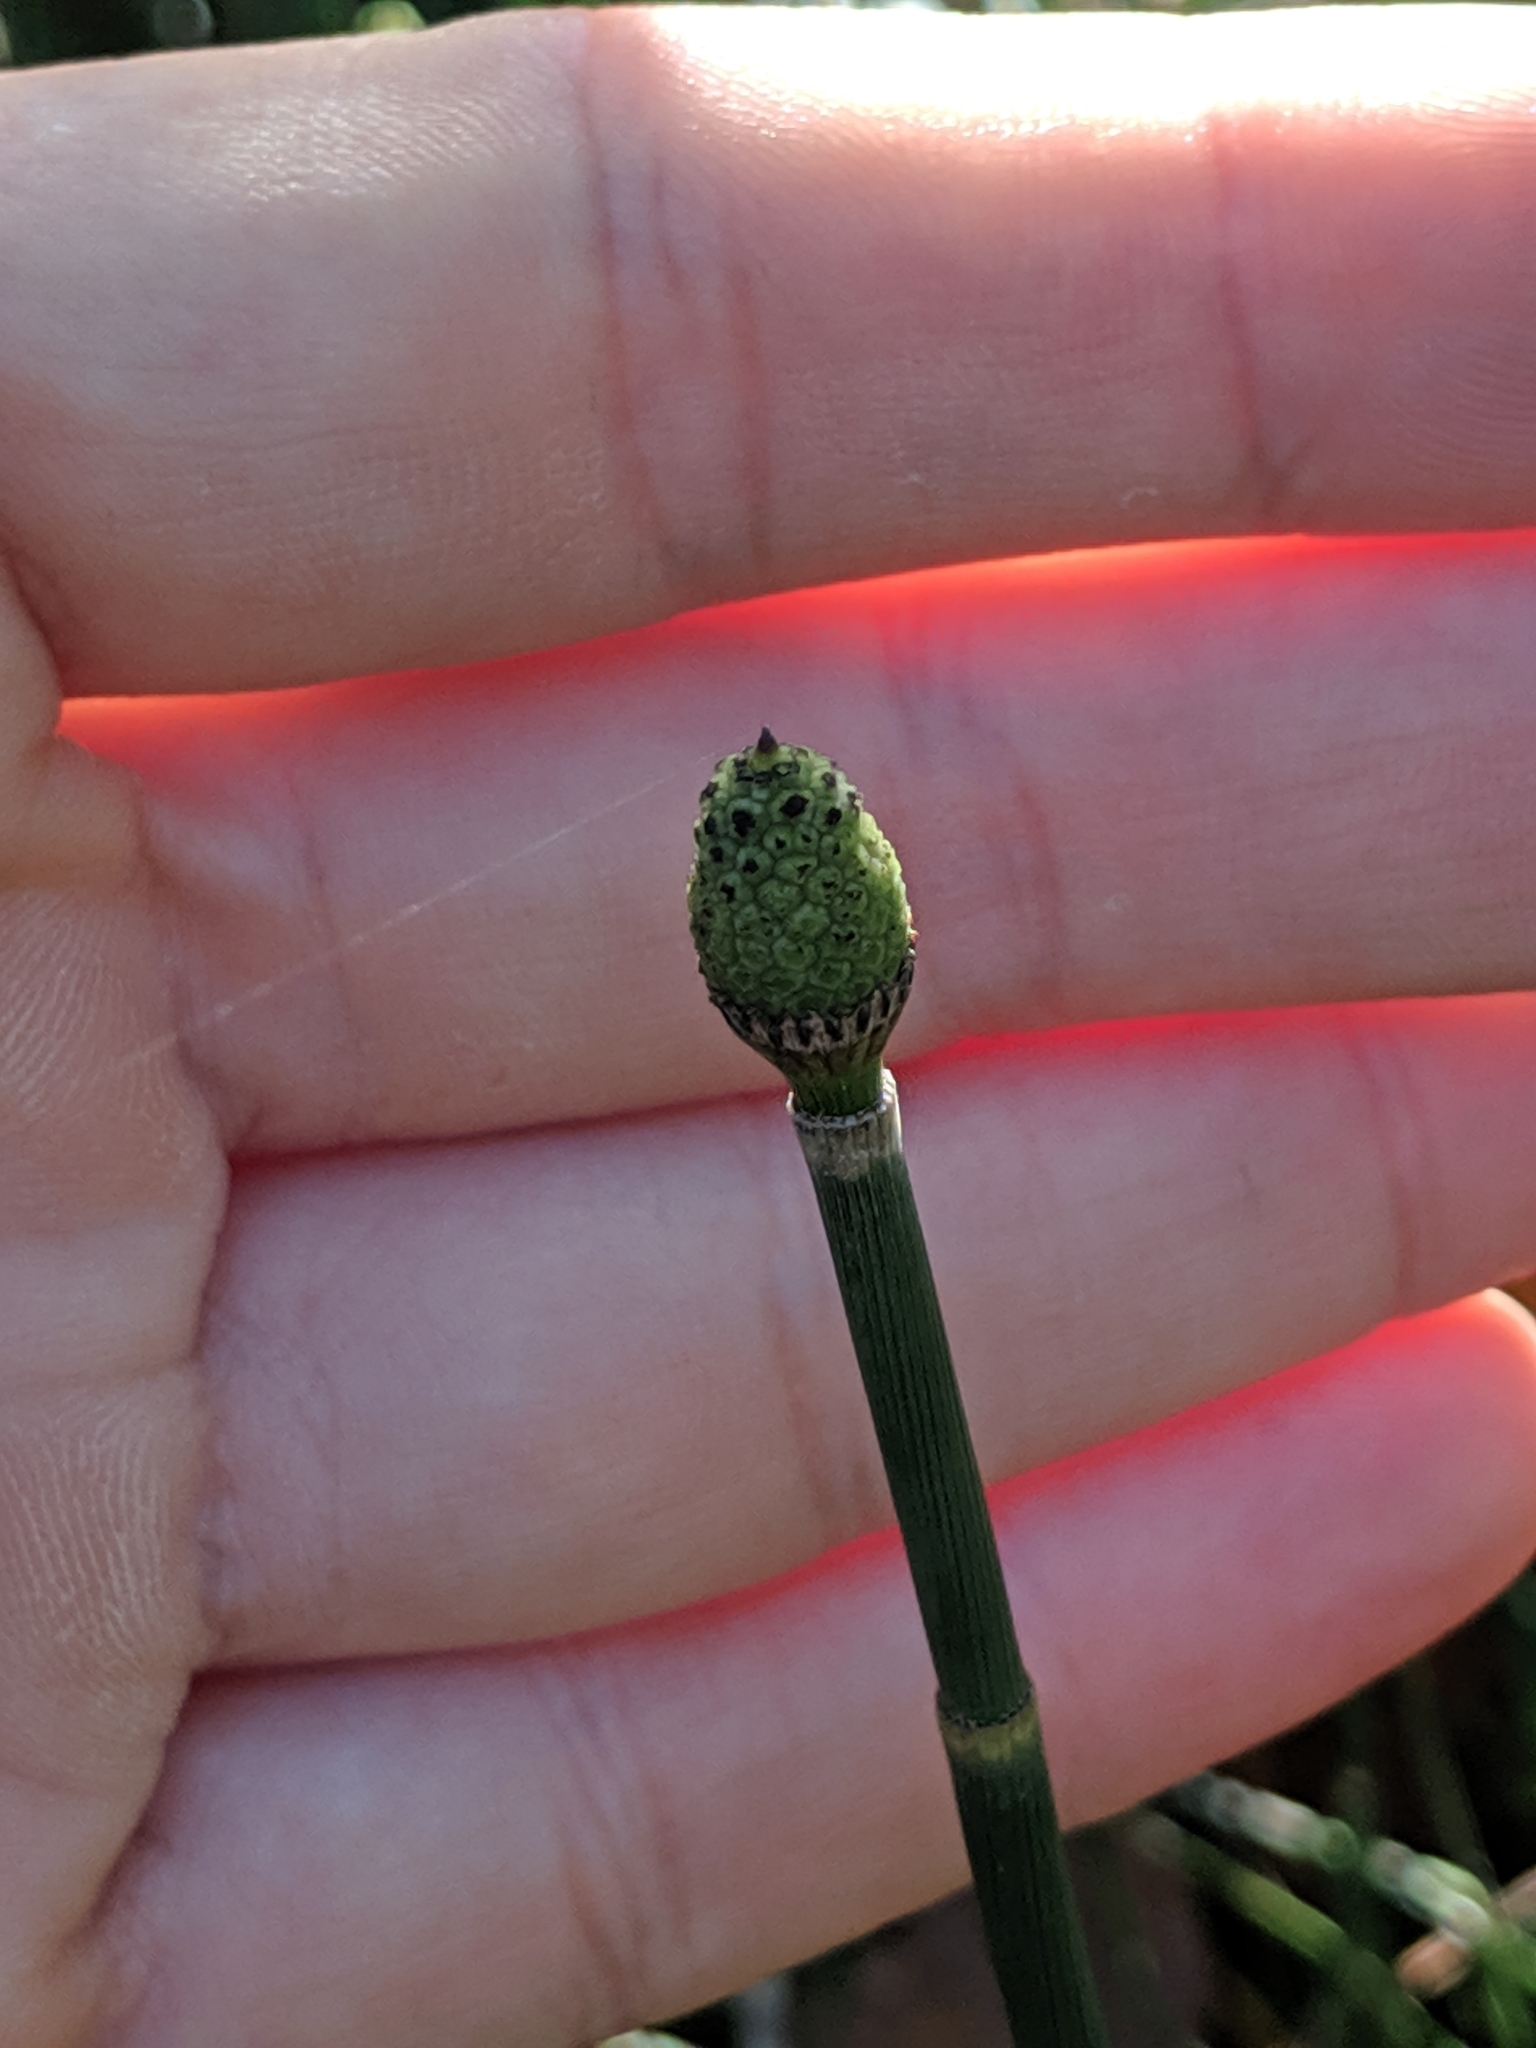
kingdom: Plantae
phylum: Tracheophyta
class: Polypodiopsida
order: Equisetales
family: Equisetaceae
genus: Equisetum
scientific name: Equisetum hyemale
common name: Rough horsetail
